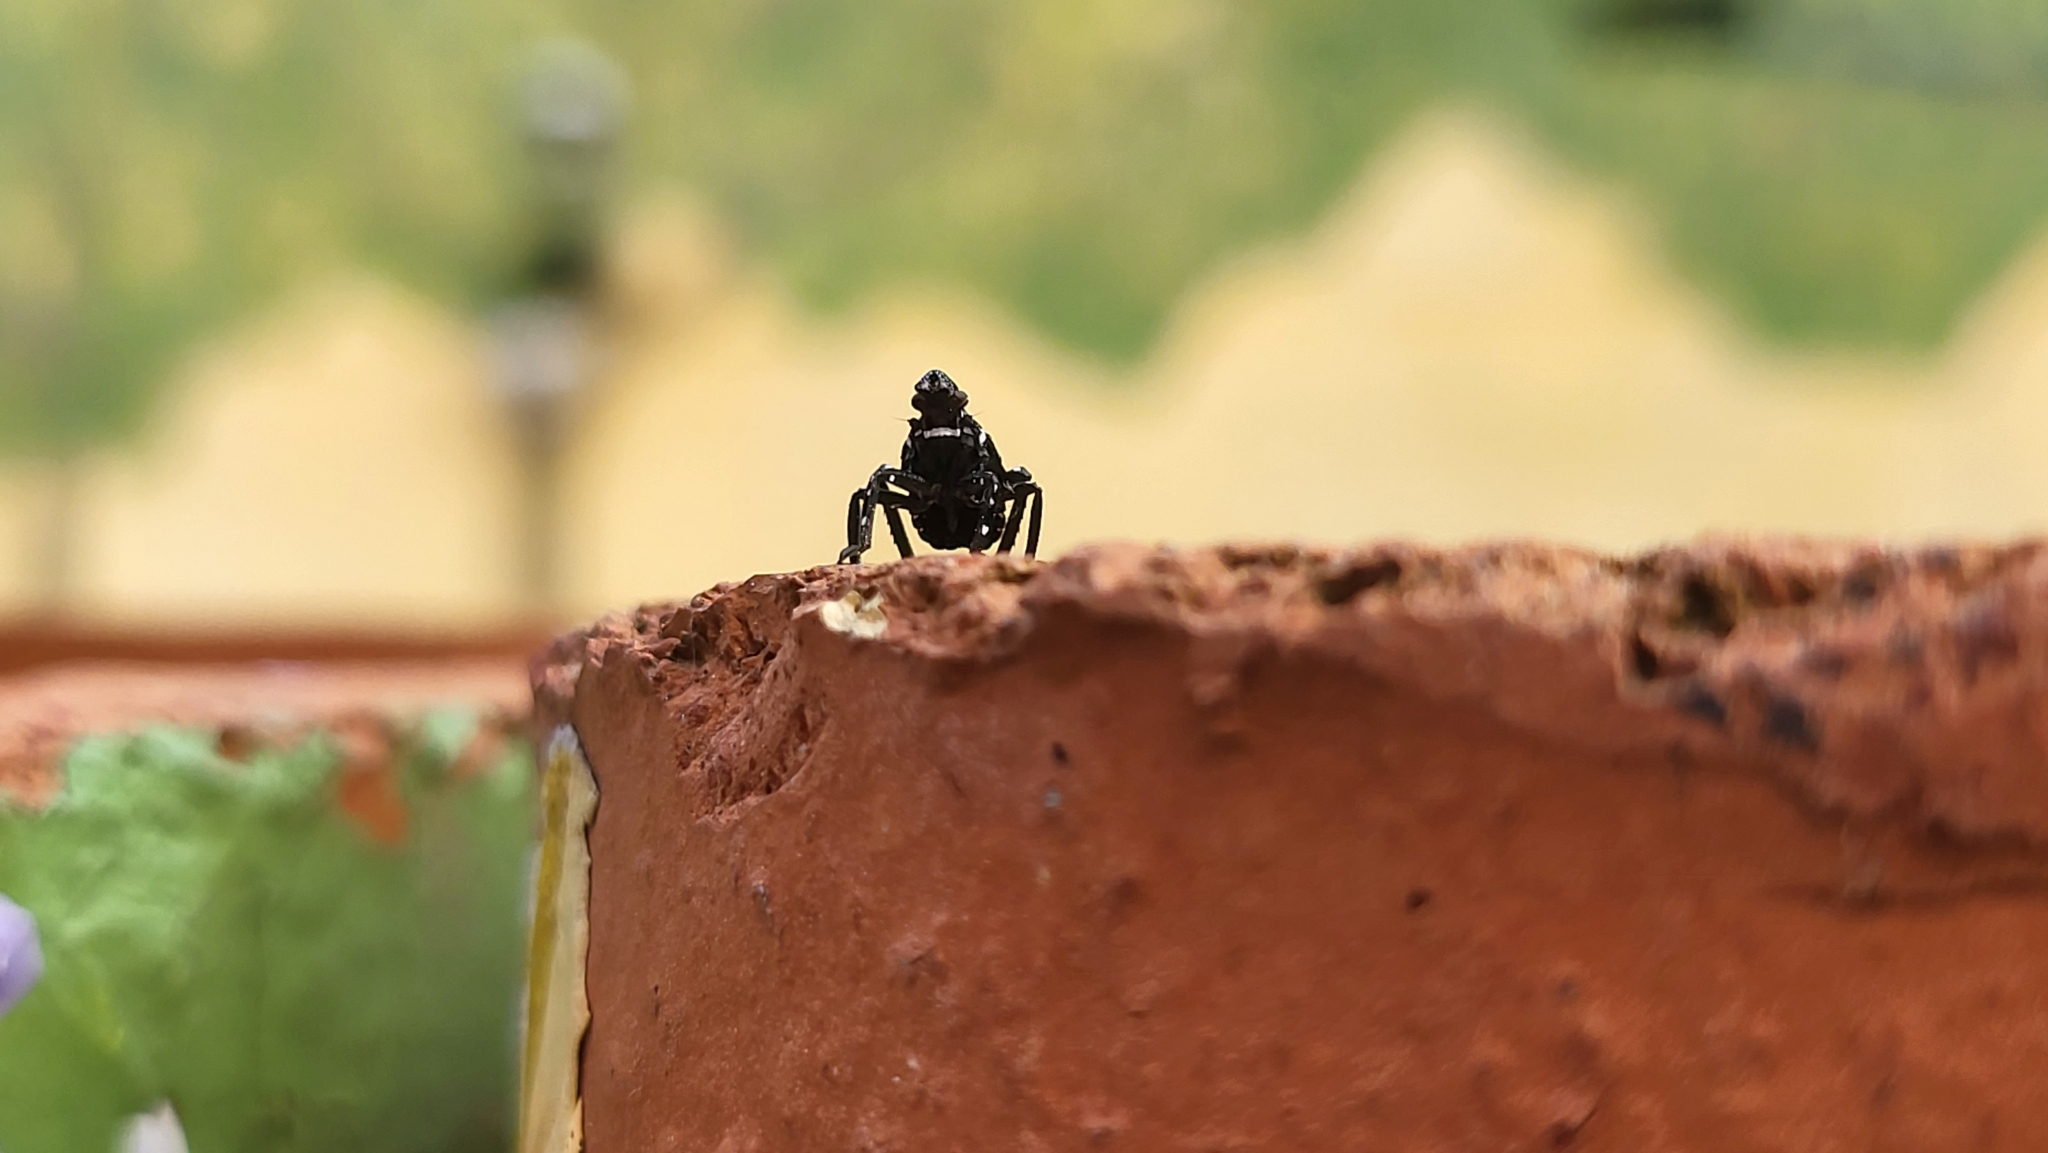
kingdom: Animalia
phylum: Arthropoda
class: Insecta
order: Hemiptera
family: Fulgoridae
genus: Lycorma
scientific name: Lycorma delicatula
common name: Spotted lanternfly
